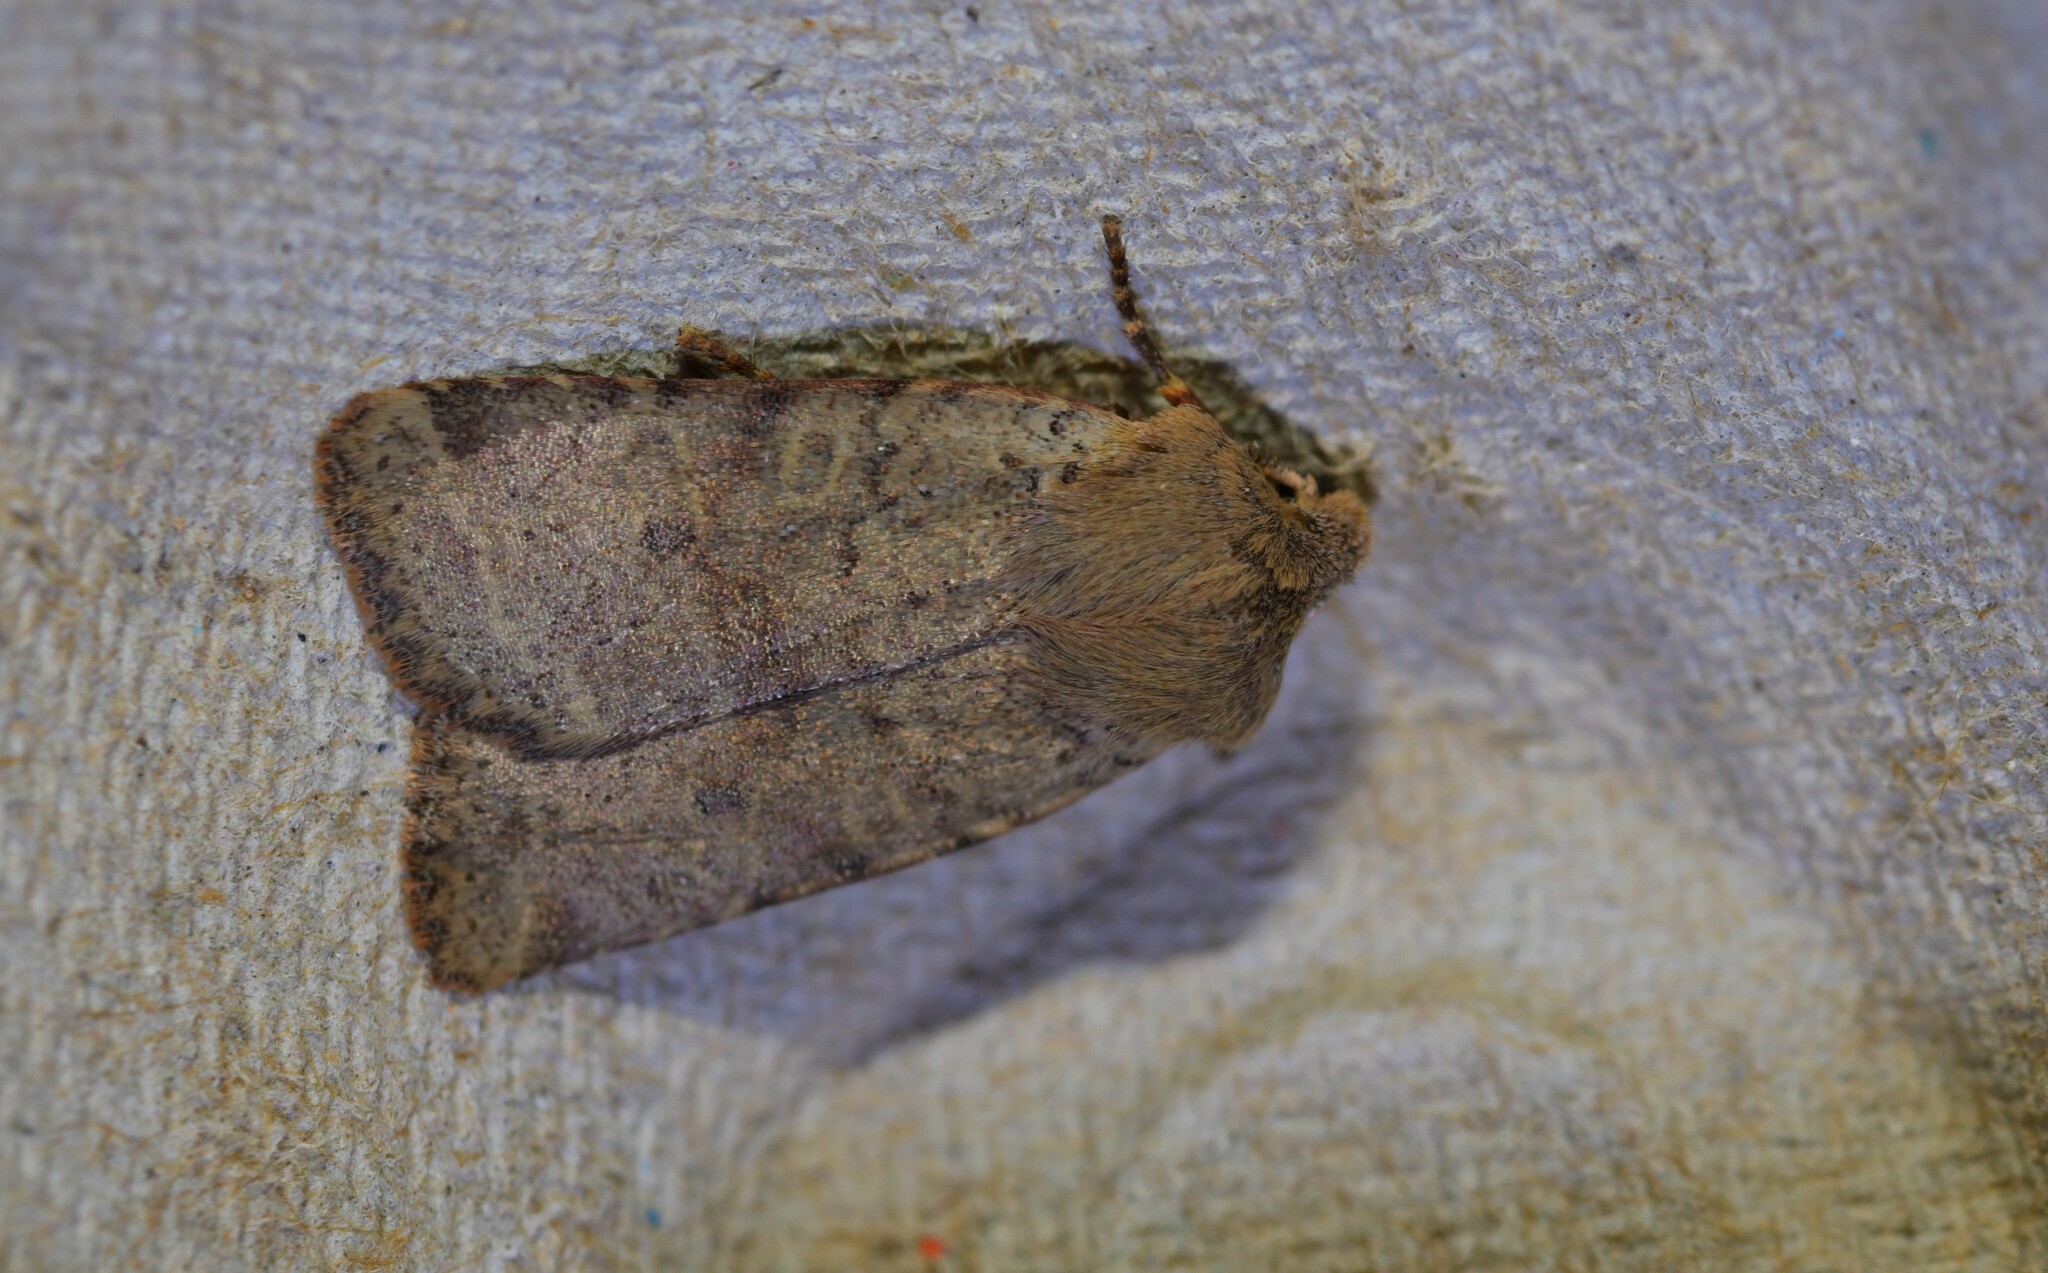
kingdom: Animalia
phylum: Arthropoda
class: Insecta
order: Lepidoptera
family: Noctuidae
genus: Agrochola
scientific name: Agrochola ruticilla
